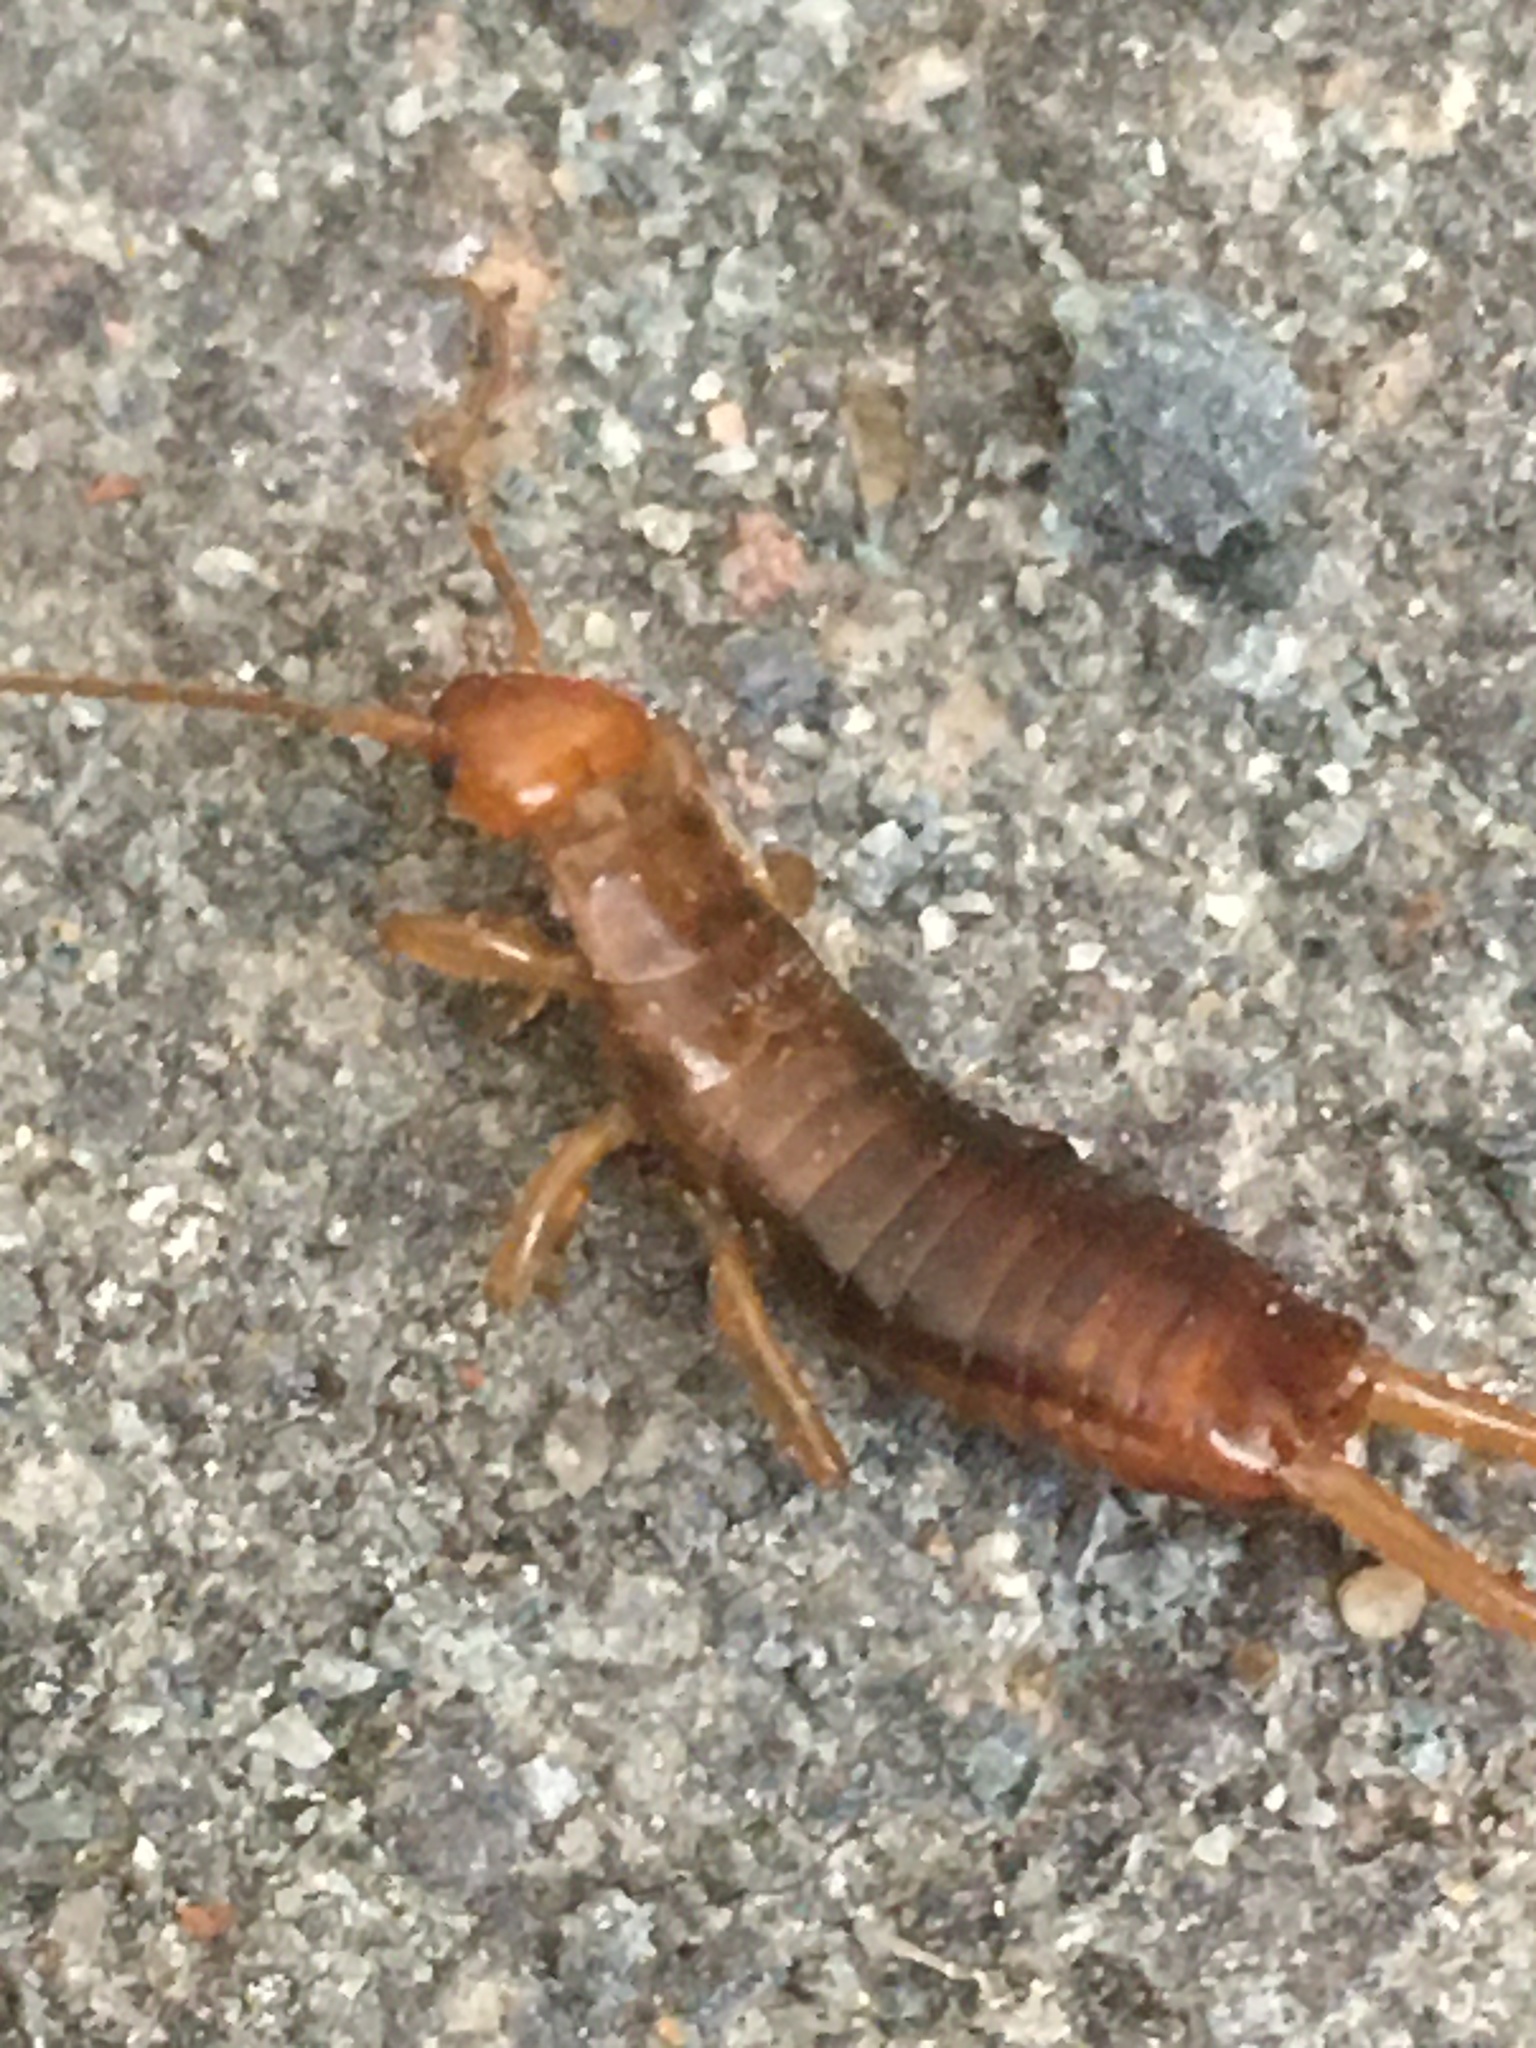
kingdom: Animalia
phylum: Arthropoda
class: Insecta
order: Dermaptera
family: Forficulidae
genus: Chelidurella
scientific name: Chelidurella acanthopygia
